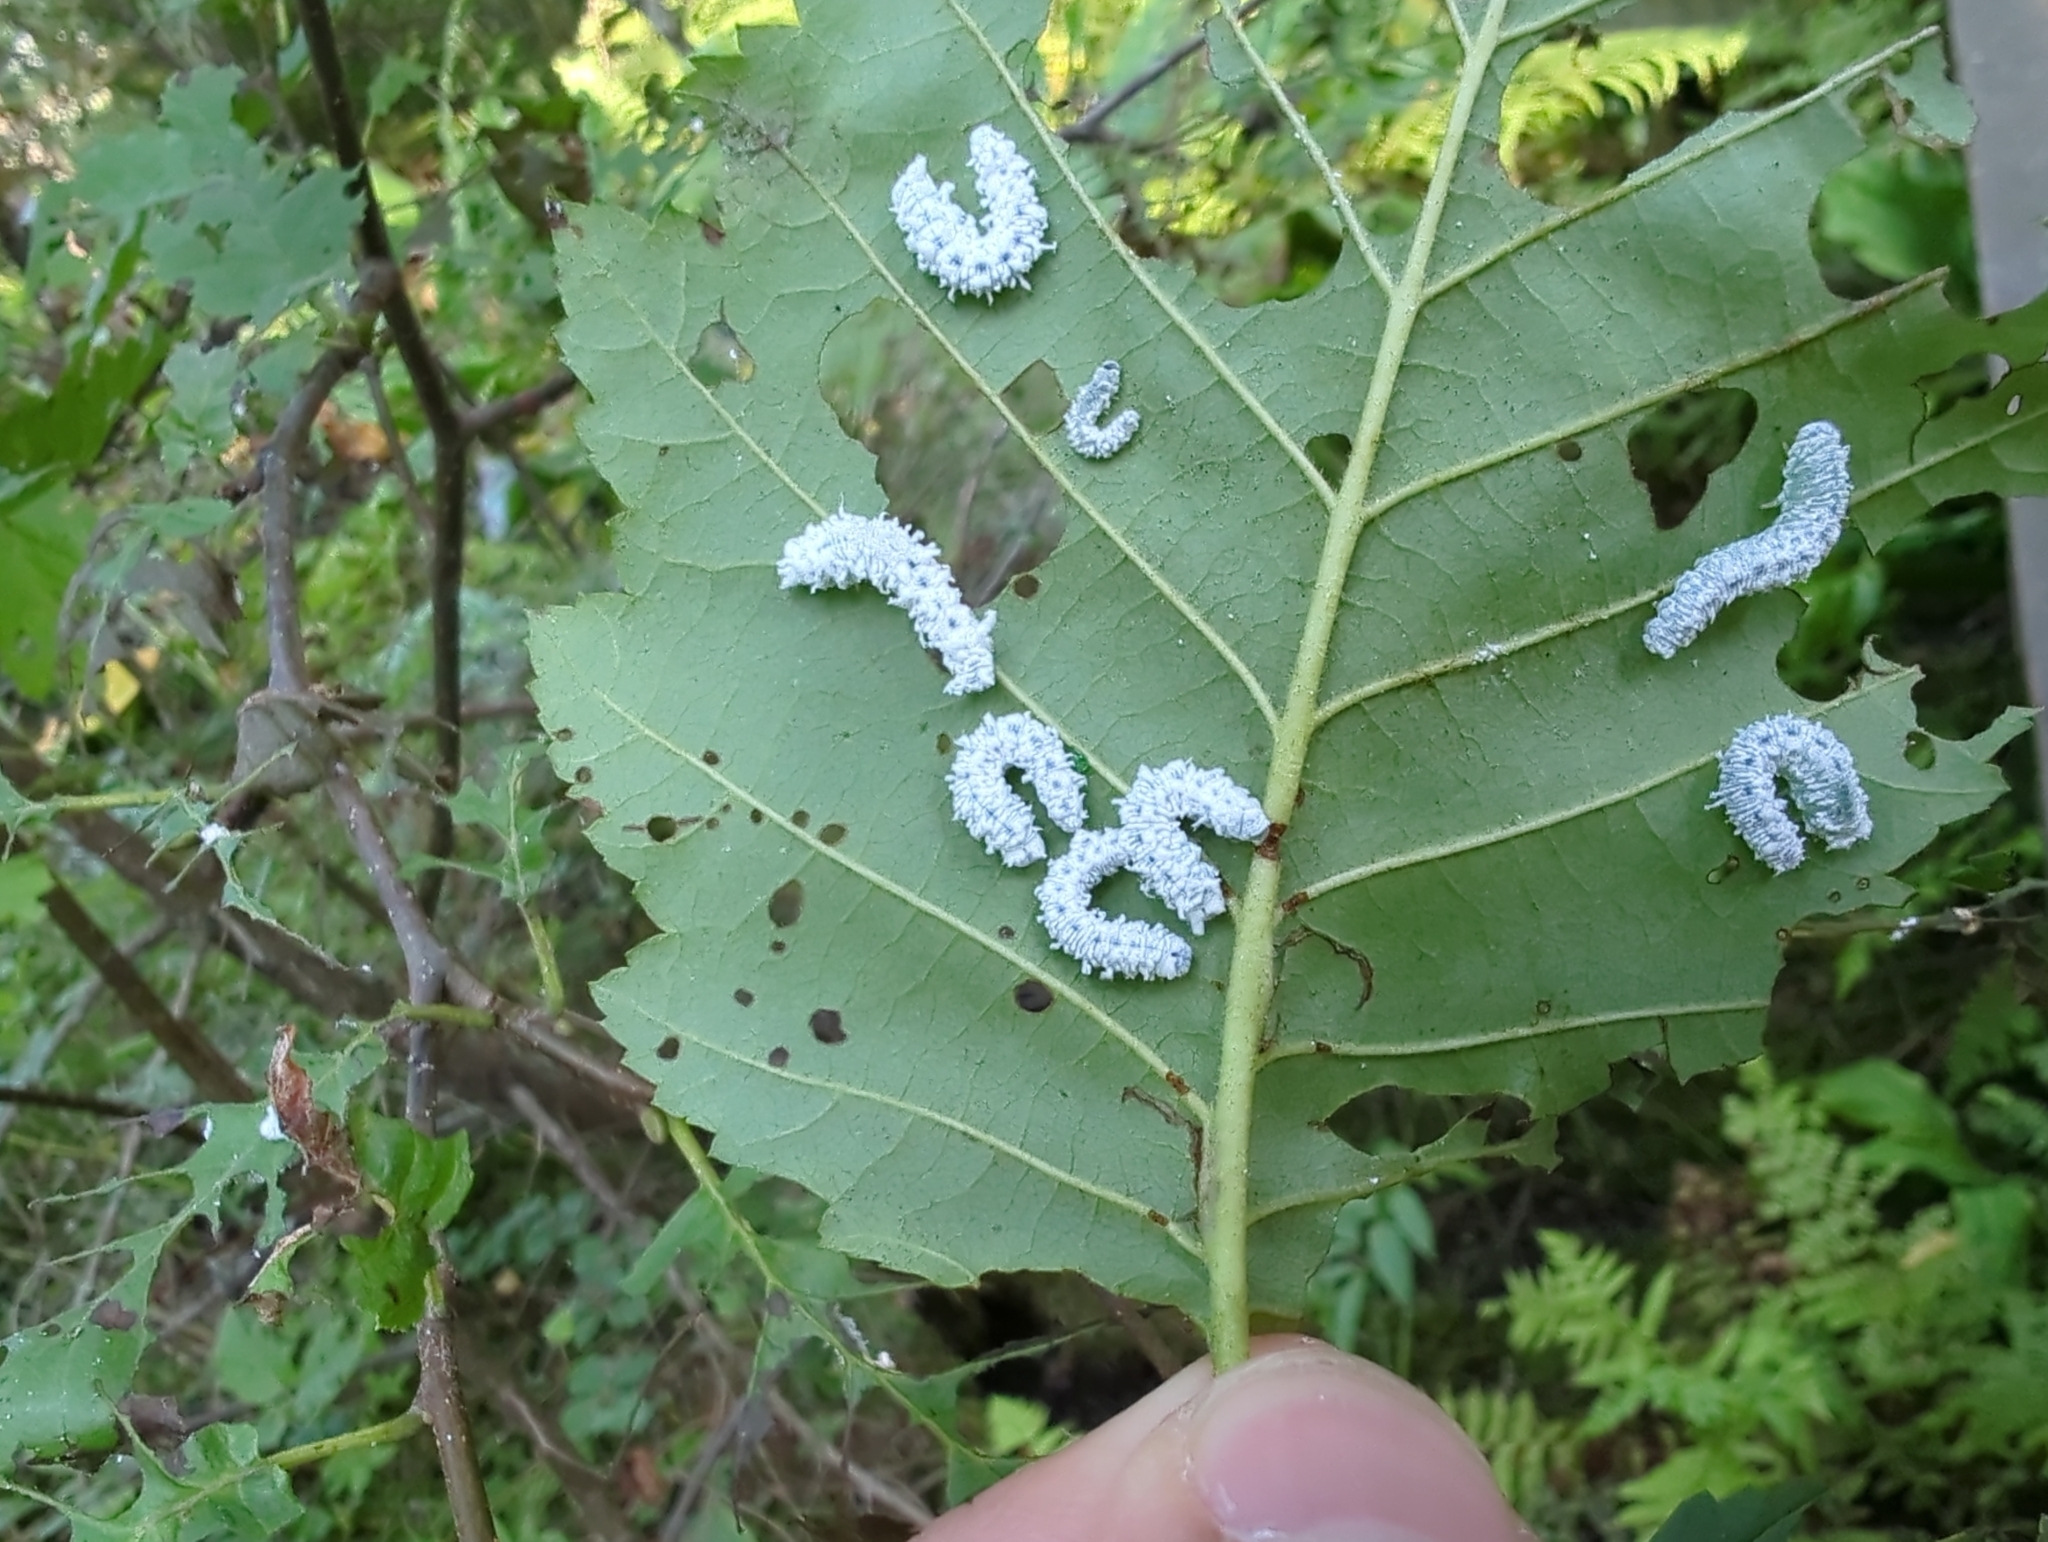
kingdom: Animalia
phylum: Arthropoda
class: Insecta
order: Hymenoptera
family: Tenthredinidae
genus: Eriocampa
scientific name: Eriocampa ovata
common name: Alder wooly sawfly
